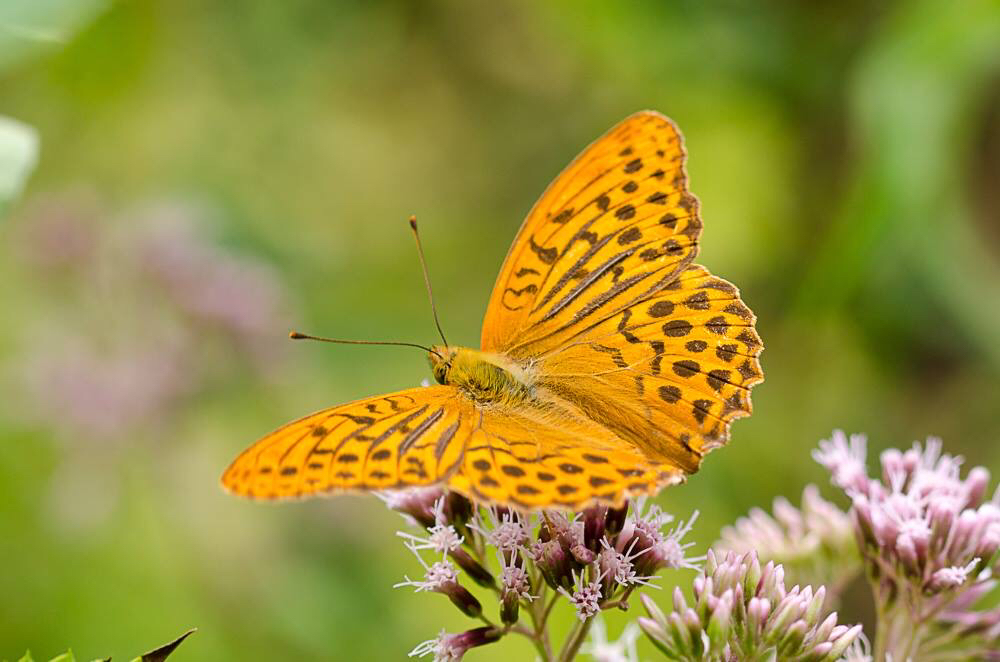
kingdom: Animalia
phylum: Arthropoda
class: Insecta
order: Lepidoptera
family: Nymphalidae
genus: Argynnis
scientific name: Argynnis paphia
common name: Silver-washed fritillary
